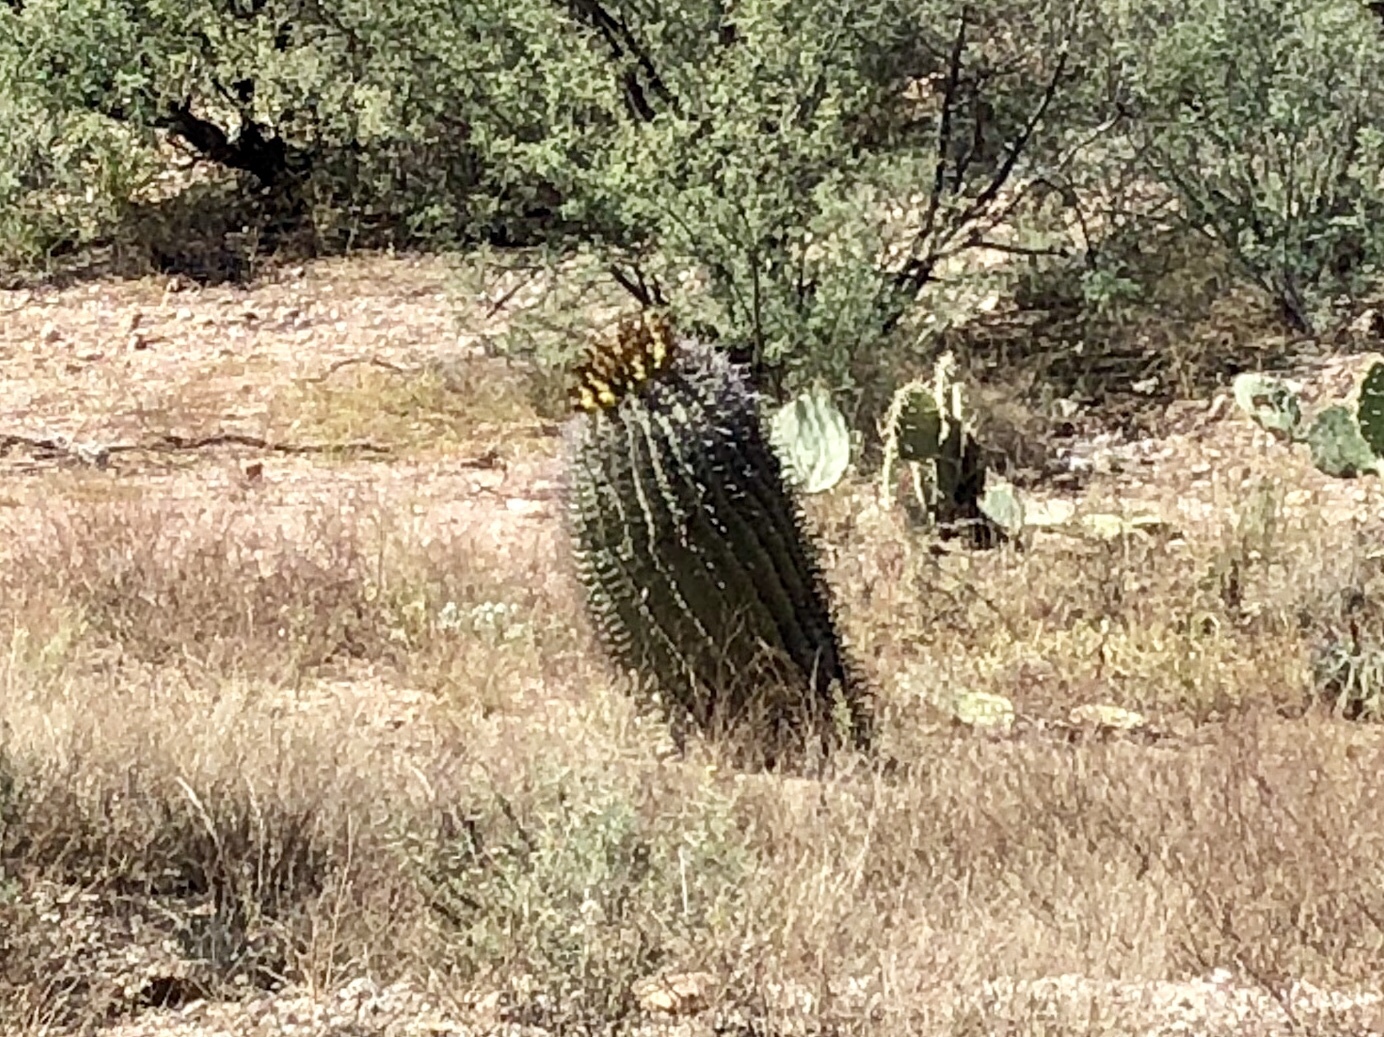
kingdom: Plantae
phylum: Tracheophyta
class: Magnoliopsida
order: Caryophyllales
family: Cactaceae
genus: Ferocactus
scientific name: Ferocactus wislizeni
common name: Candy barrel cactus
